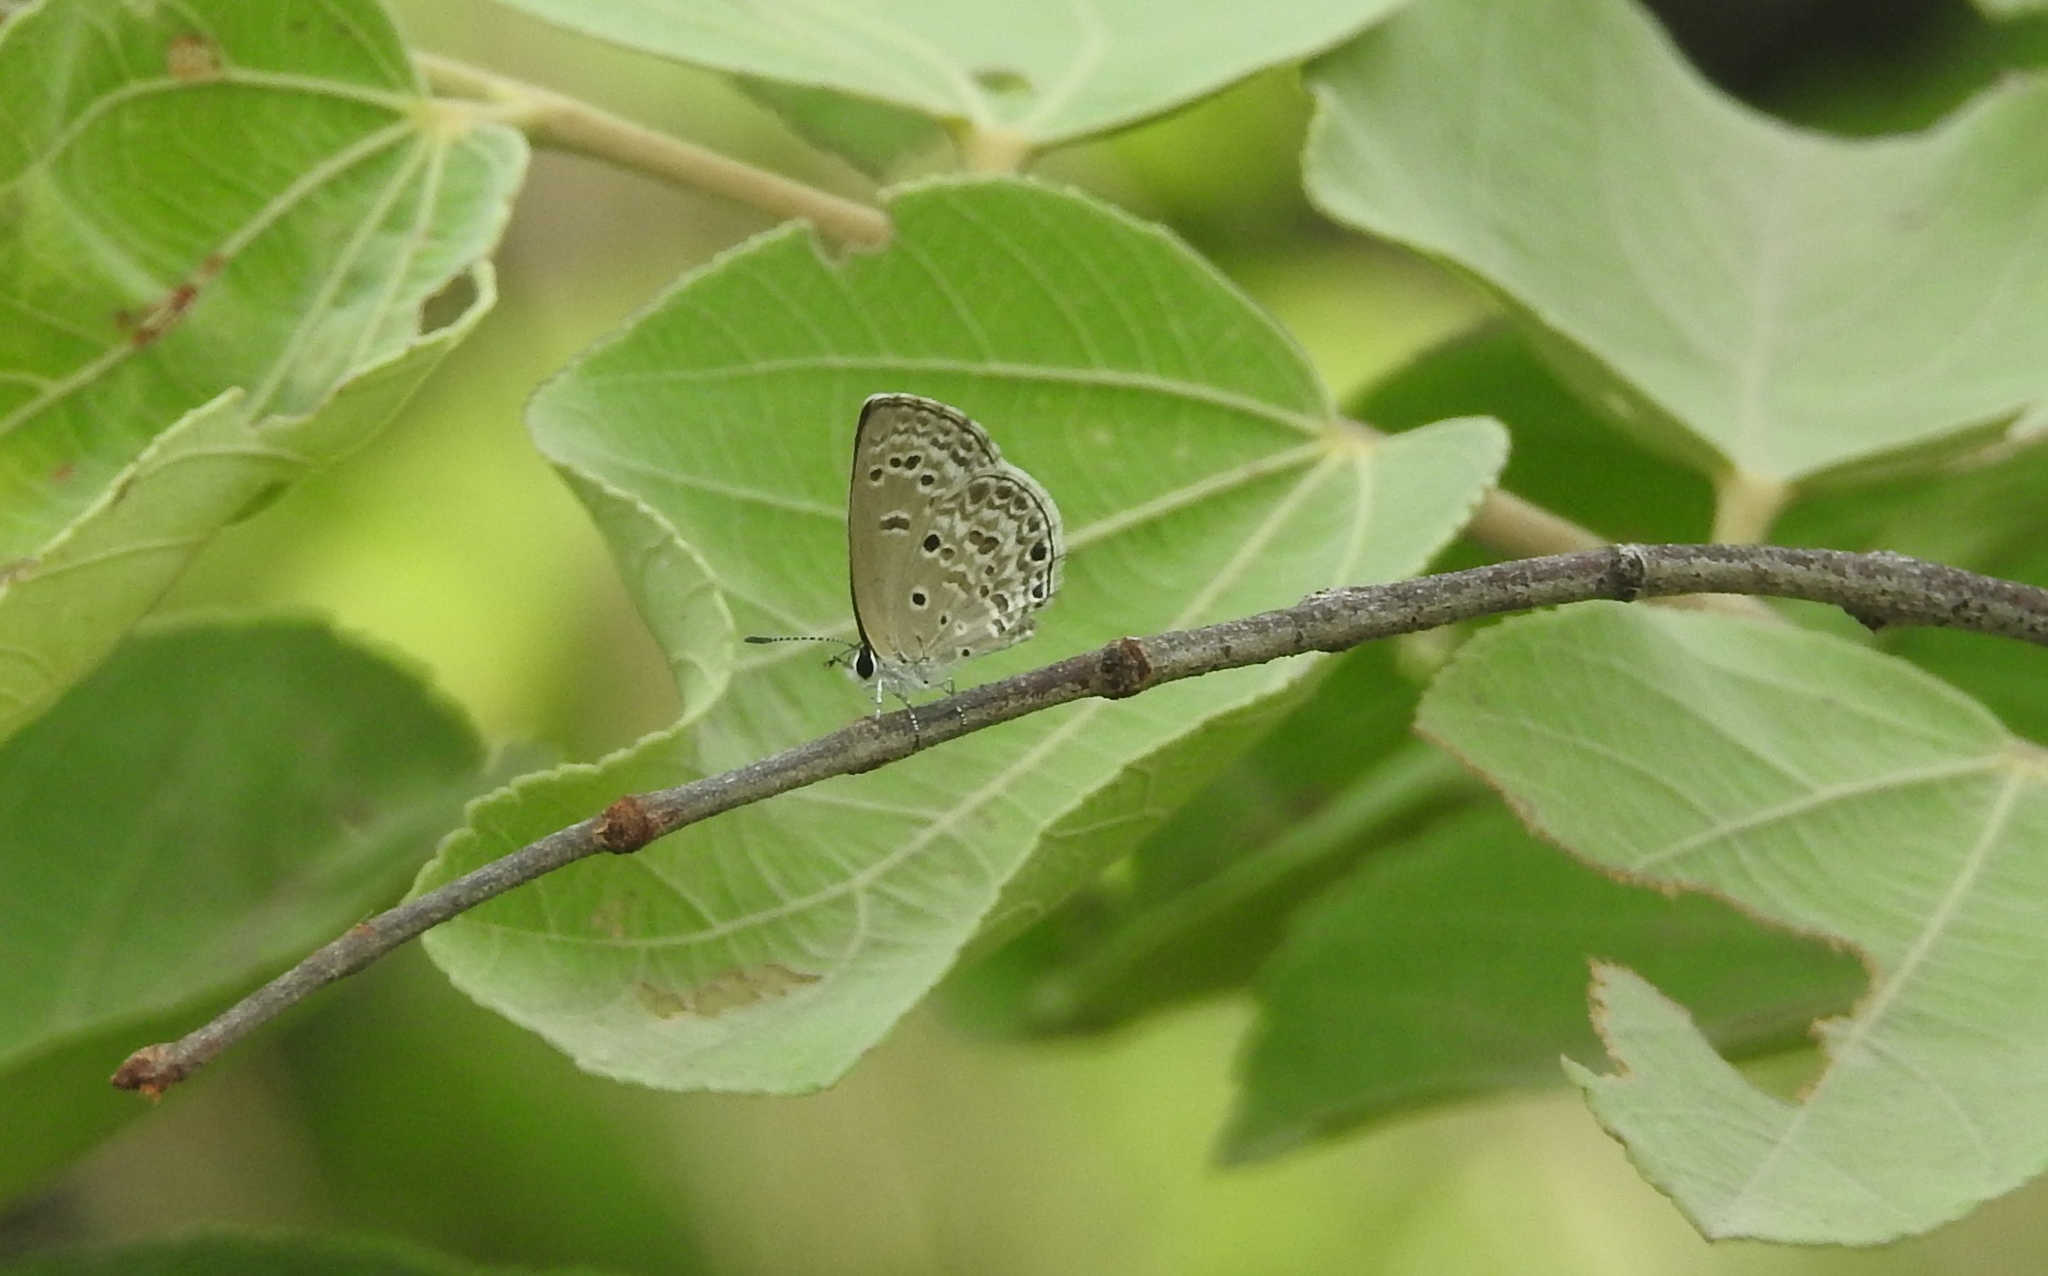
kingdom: Animalia
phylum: Arthropoda
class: Insecta
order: Lepidoptera
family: Lycaenidae
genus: Chilades
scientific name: Chilades laius
